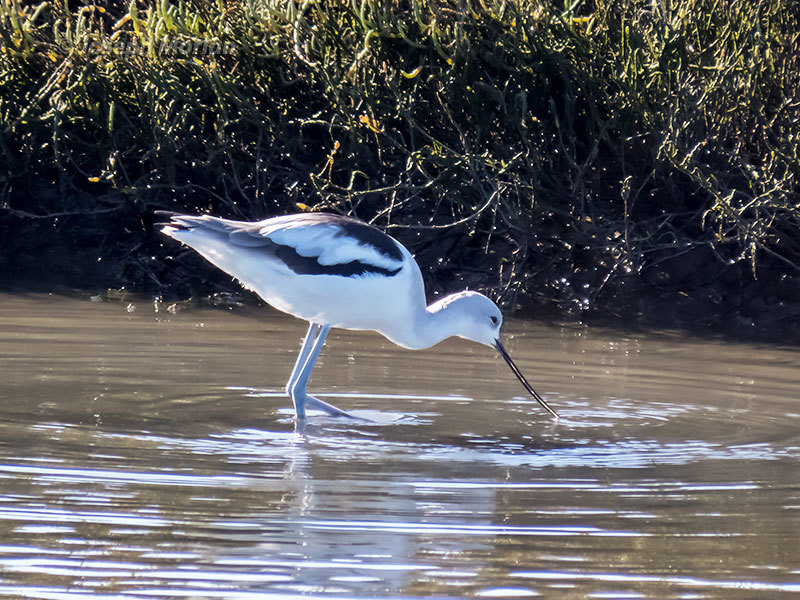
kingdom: Animalia
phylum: Chordata
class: Aves
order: Charadriiformes
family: Recurvirostridae
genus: Recurvirostra
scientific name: Recurvirostra americana
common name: American avocet
